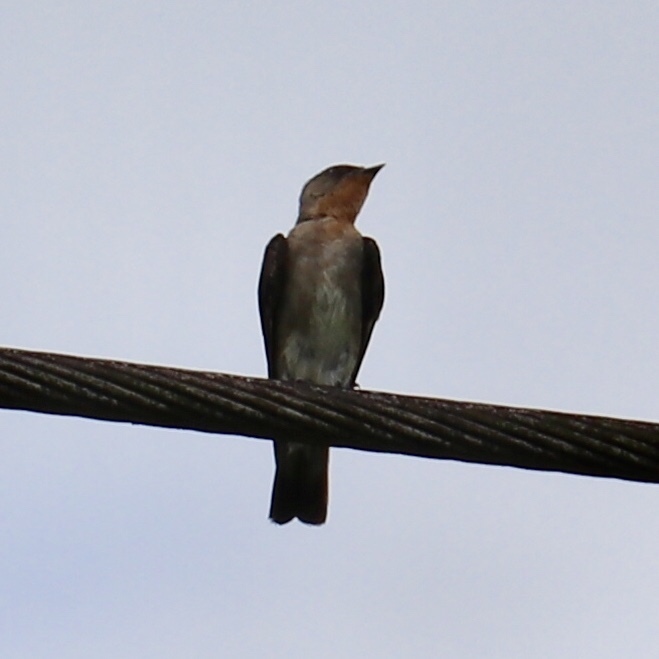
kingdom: Animalia
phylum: Chordata
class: Aves
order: Passeriformes
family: Hirundinidae
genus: Stelgidopteryx
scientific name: Stelgidopteryx ruficollis
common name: Southern rough-winged swallow
